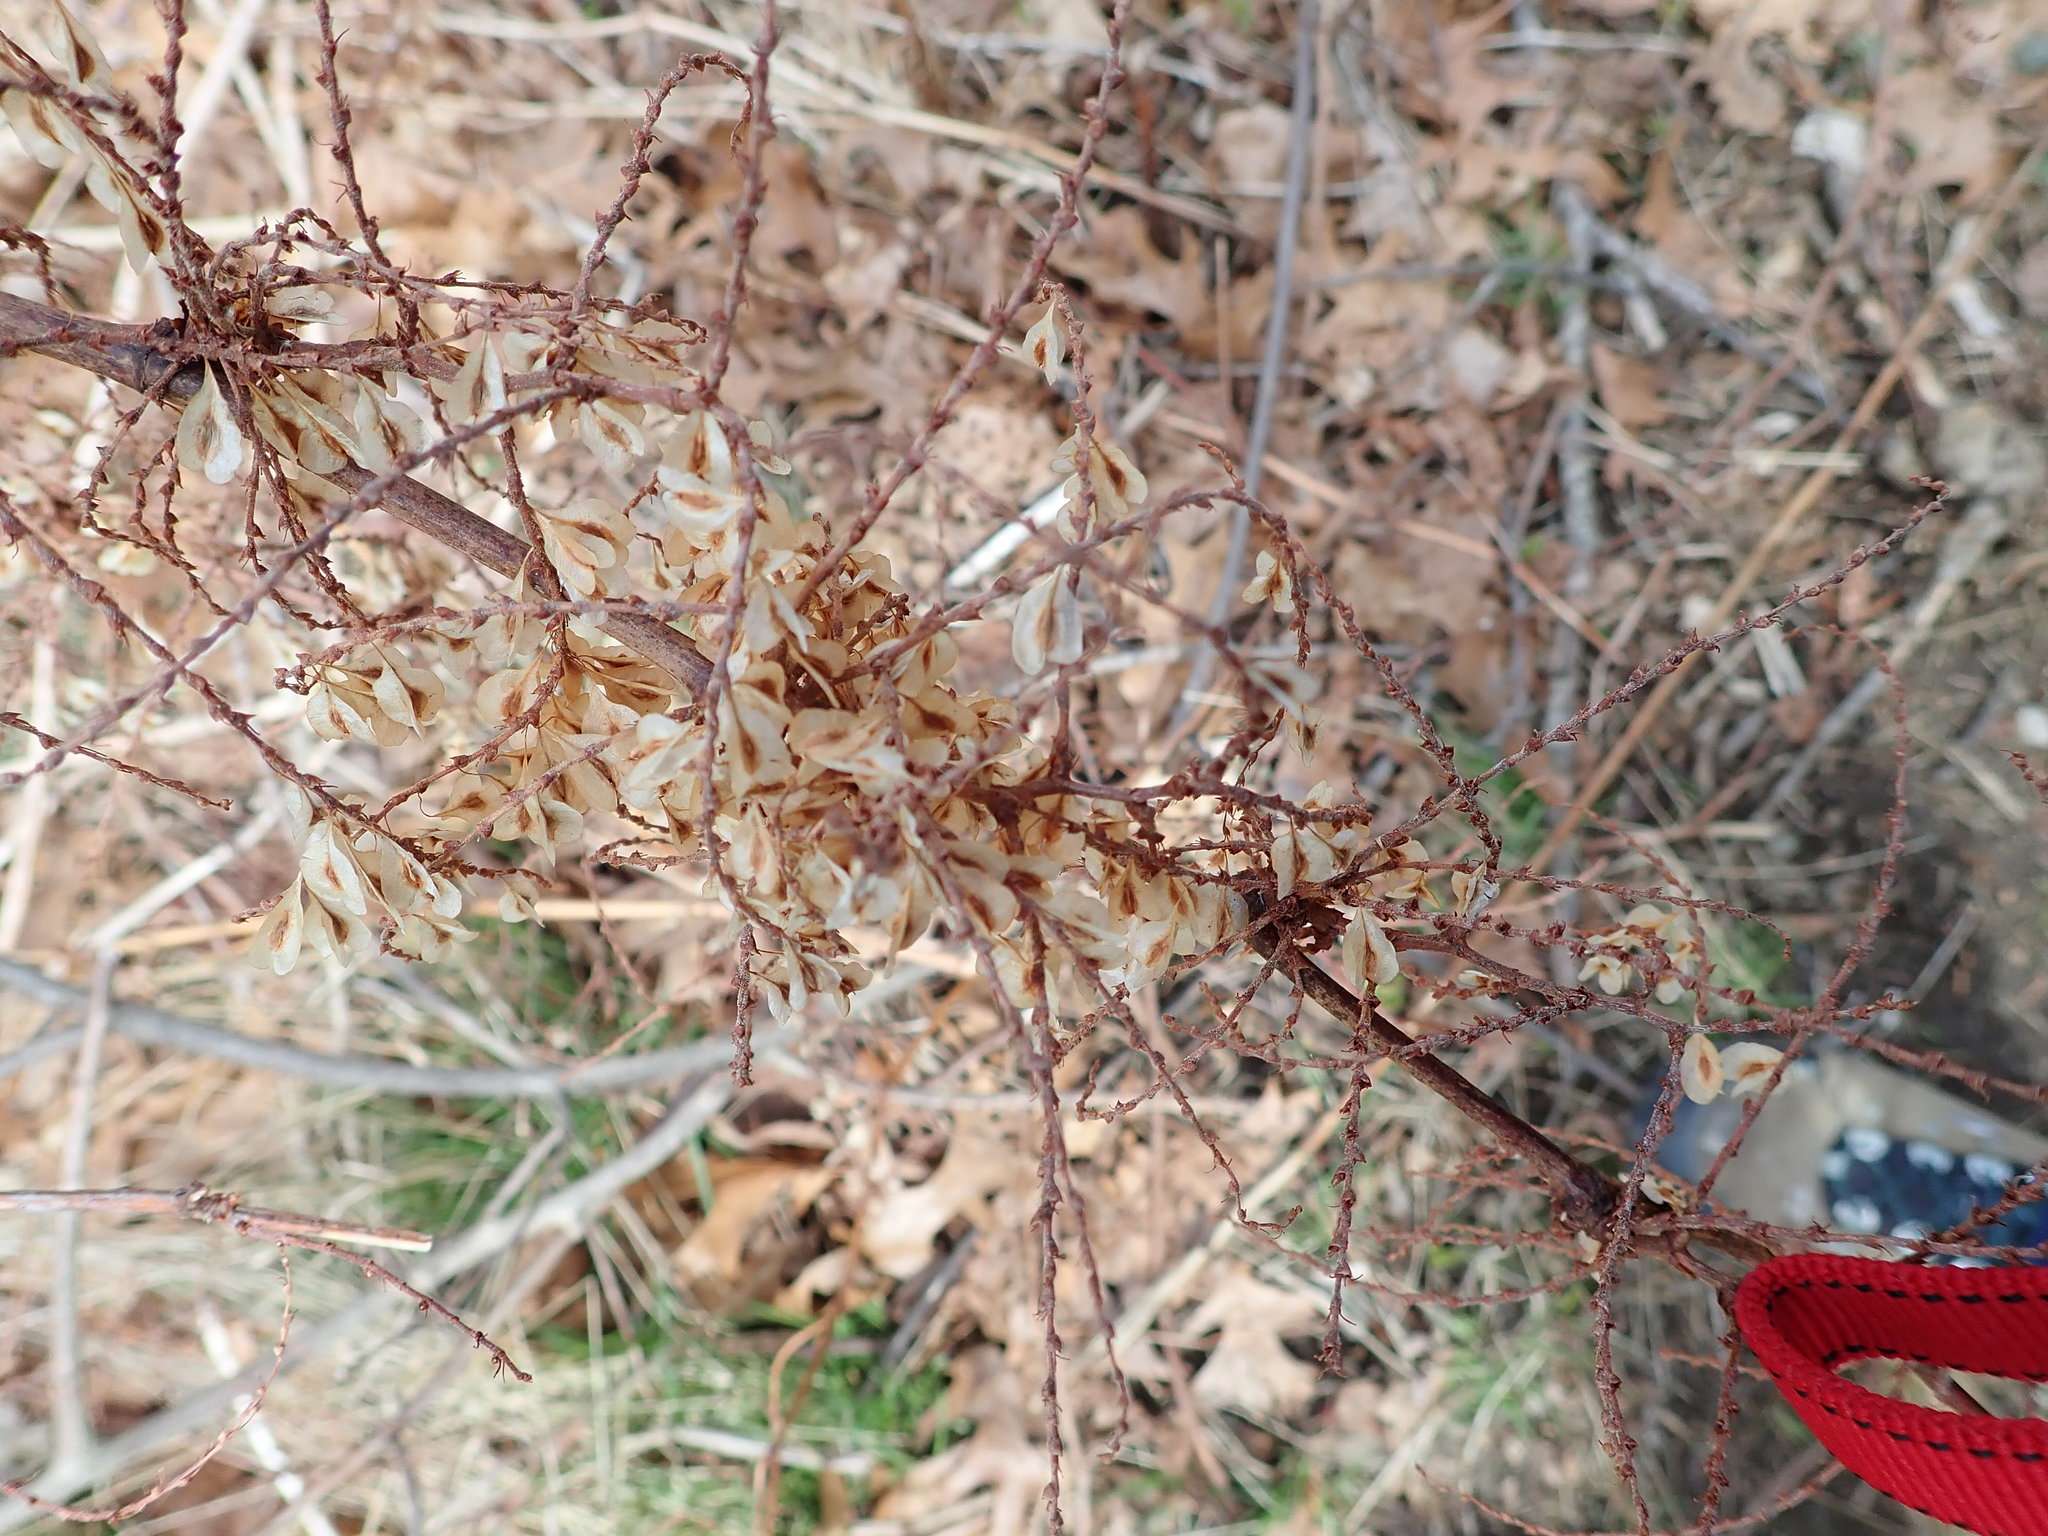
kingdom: Plantae
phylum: Tracheophyta
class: Magnoliopsida
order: Caryophyllales
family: Polygonaceae
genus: Reynoutria
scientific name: Reynoutria japonica
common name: Japanese knotweed
